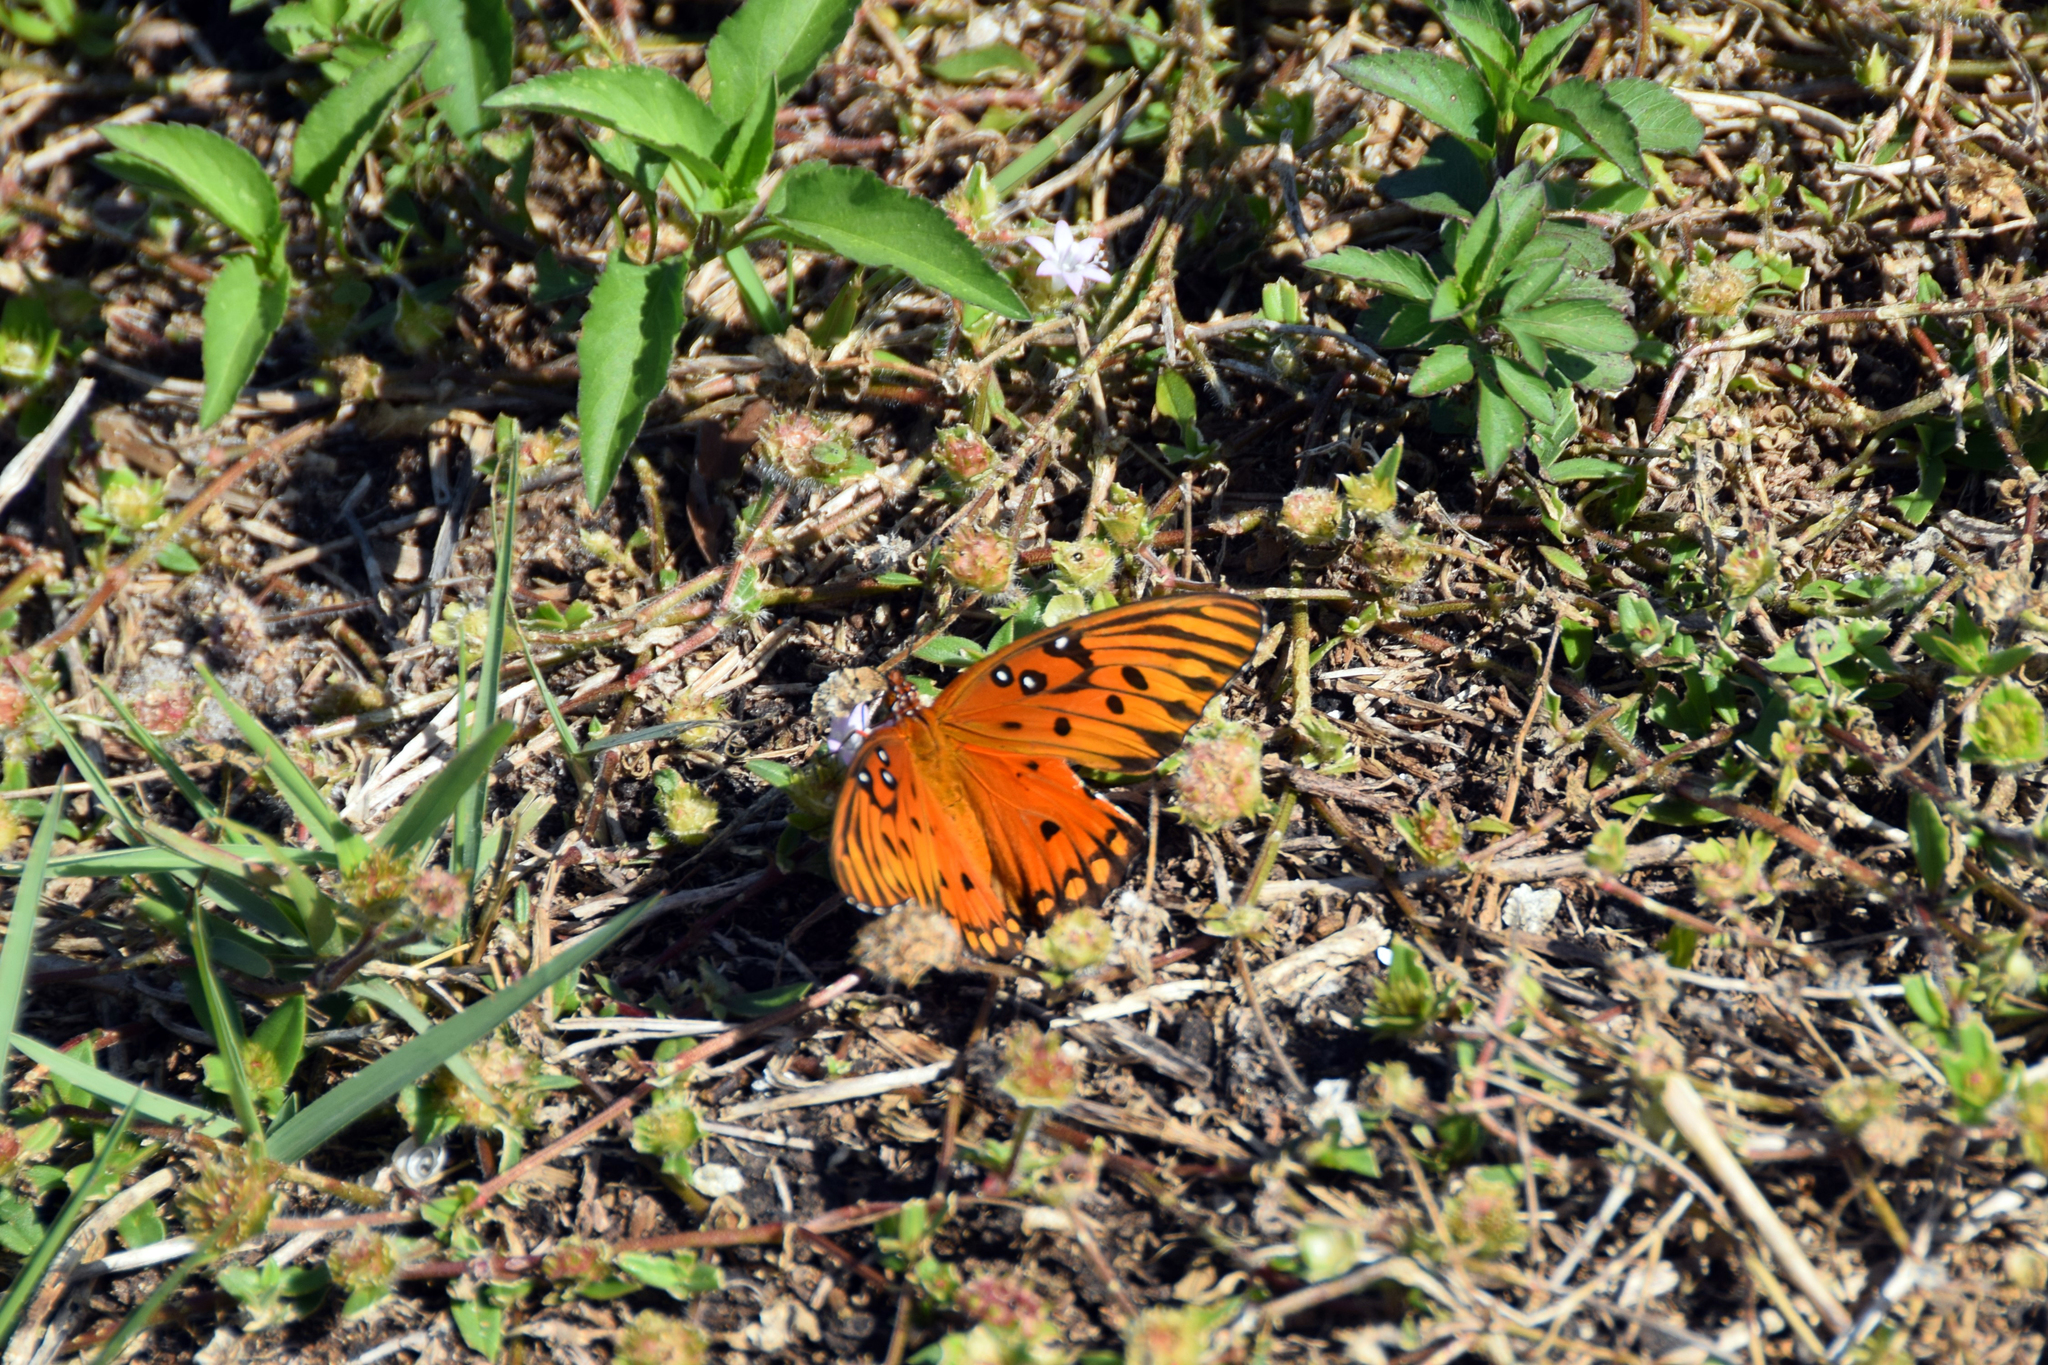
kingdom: Animalia
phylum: Arthropoda
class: Insecta
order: Lepidoptera
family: Nymphalidae
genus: Dione
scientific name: Dione vanillae
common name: Gulf fritillary
